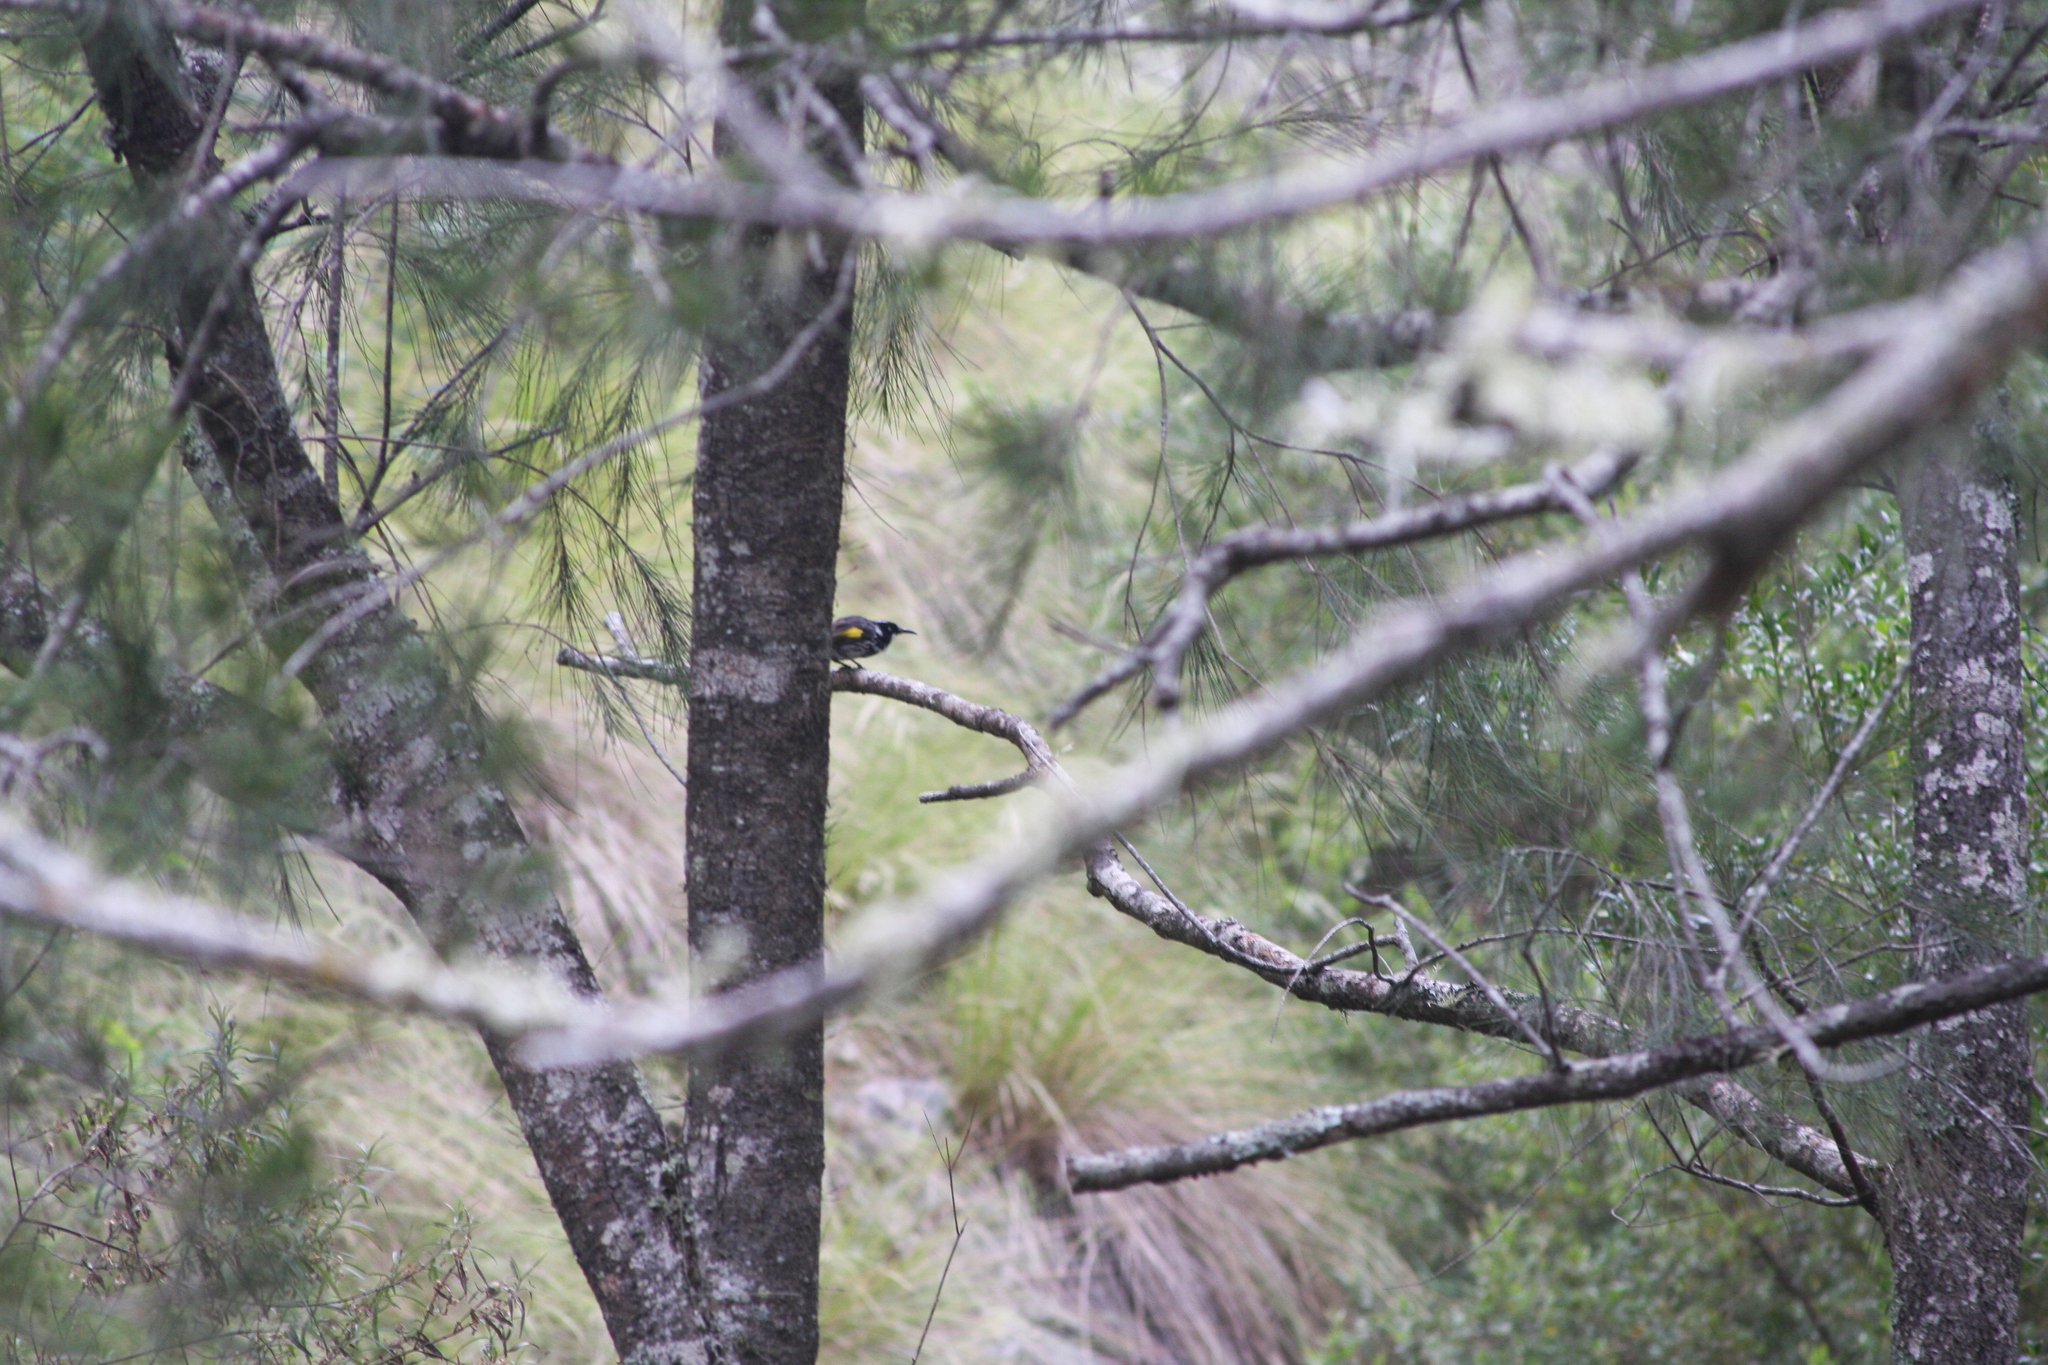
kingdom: Animalia
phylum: Chordata
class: Aves
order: Passeriformes
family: Meliphagidae
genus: Phylidonyris
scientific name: Phylidonyris novaehollandiae
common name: New holland honeyeater
